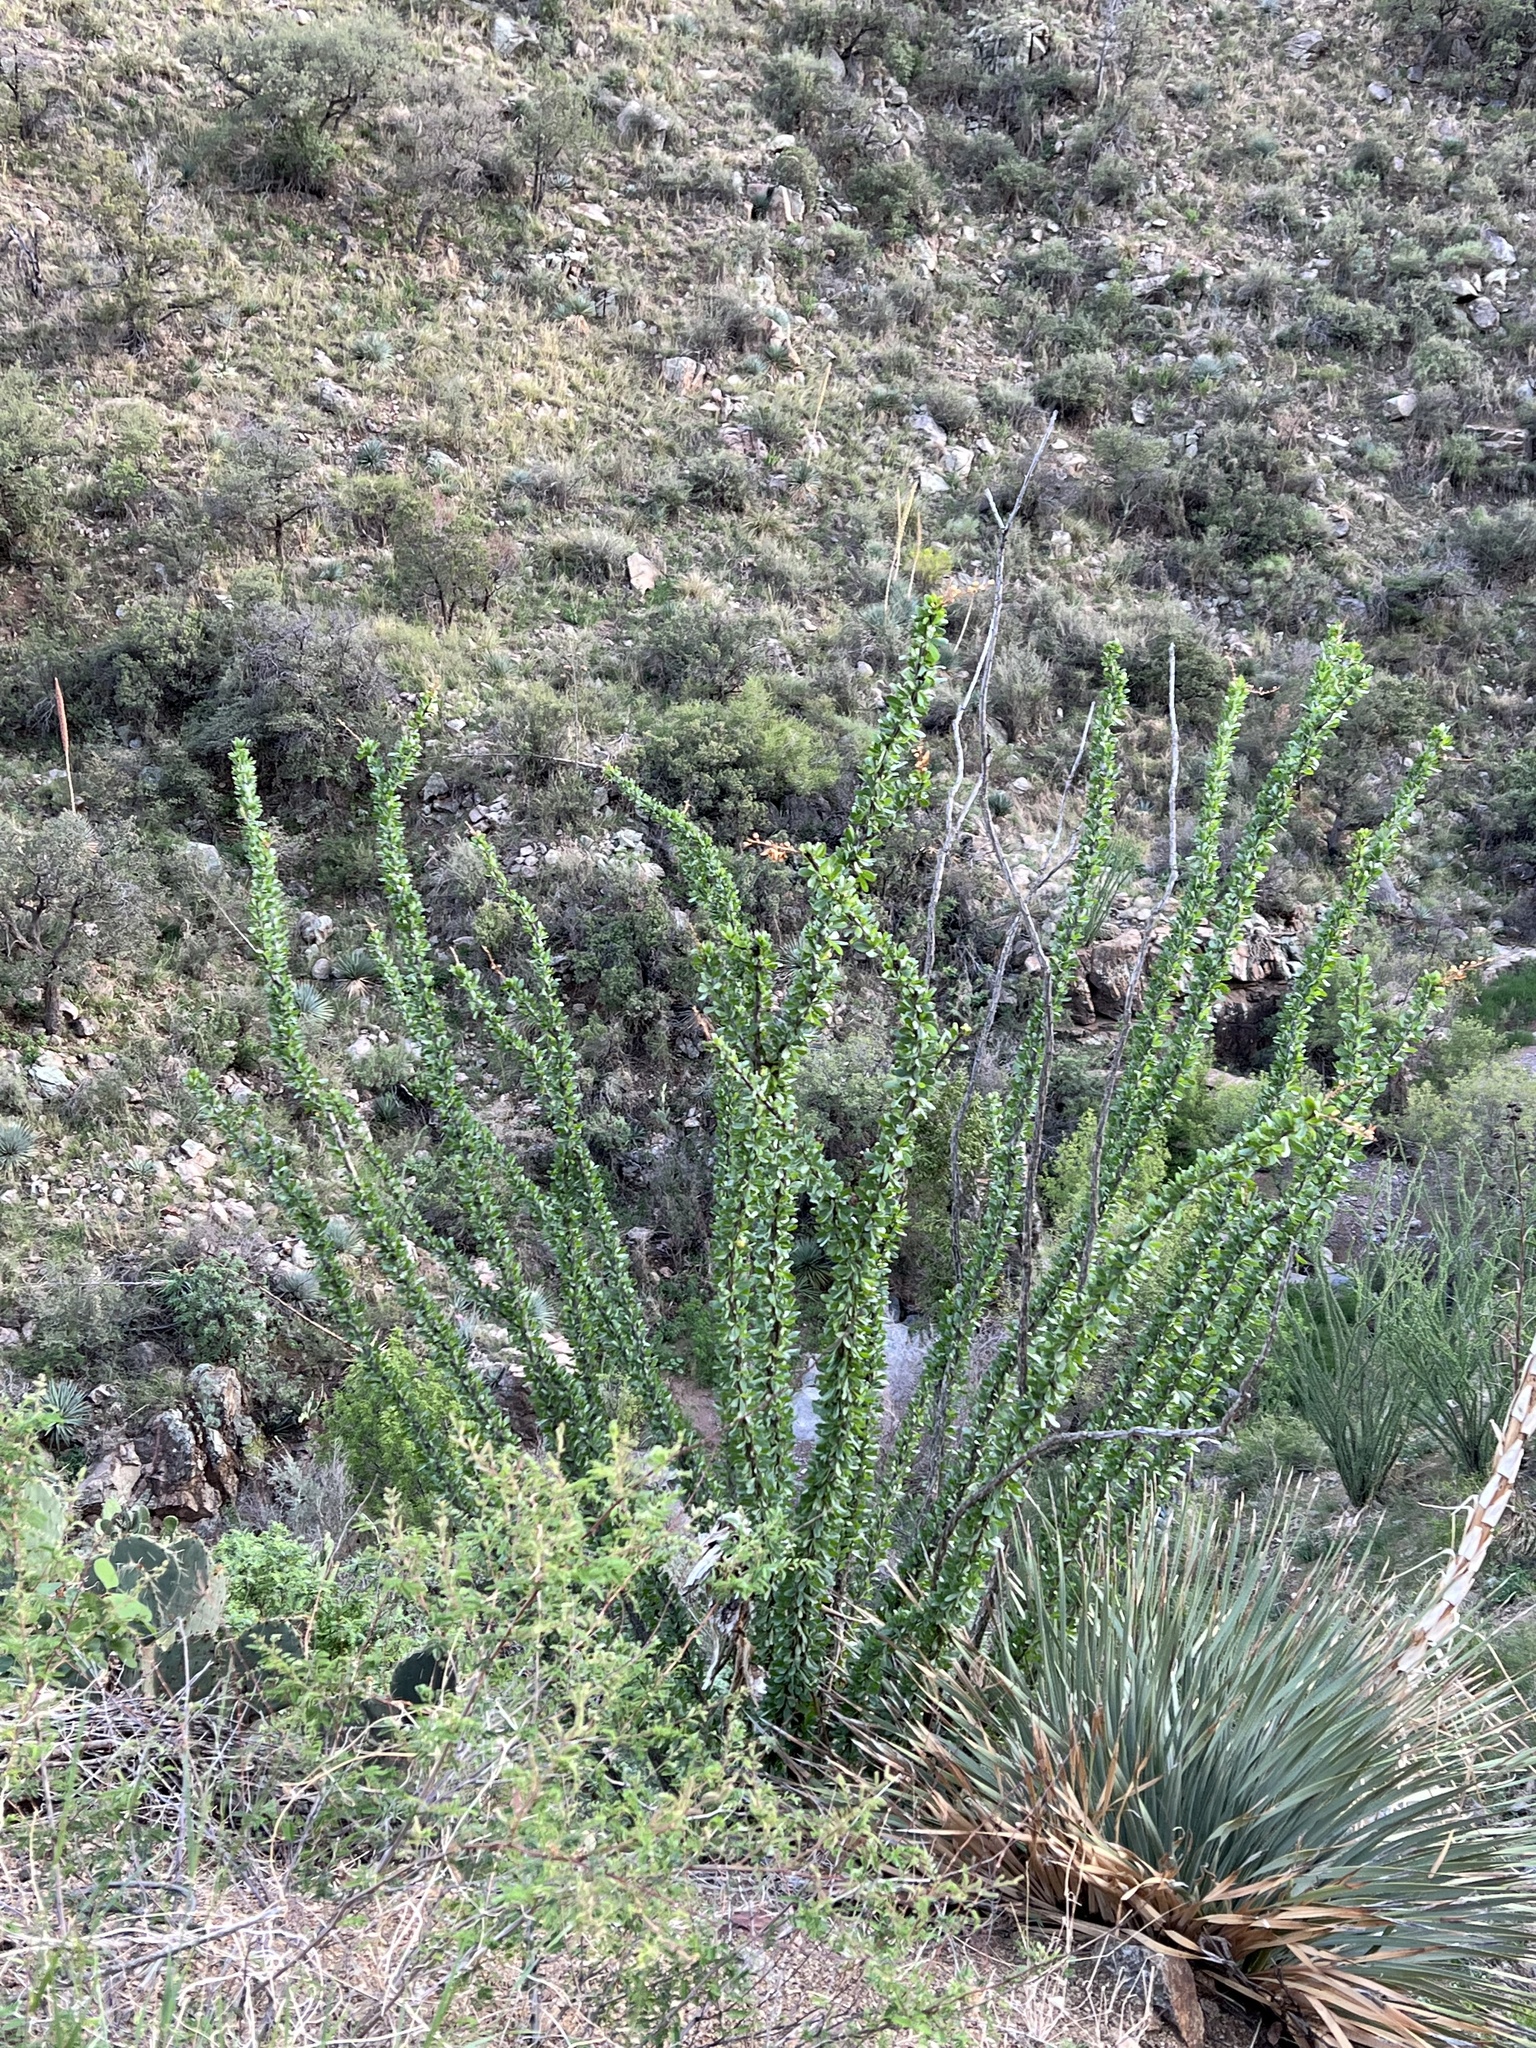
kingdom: Plantae
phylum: Tracheophyta
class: Magnoliopsida
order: Ericales
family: Fouquieriaceae
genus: Fouquieria
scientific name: Fouquieria splendens
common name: Vine-cactus
